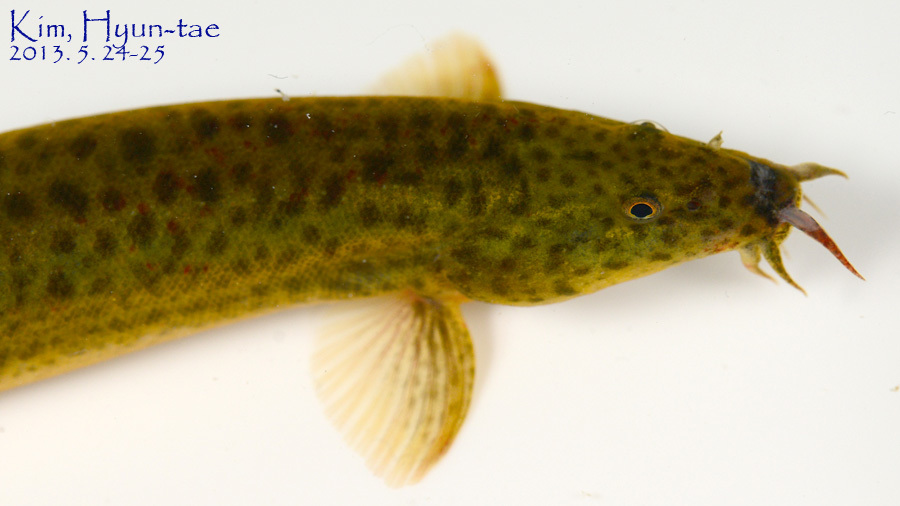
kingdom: Animalia
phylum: Chordata
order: Cypriniformes
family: Cobitidae
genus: Misgurnus
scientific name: Misgurnus anguillicaudatus
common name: Oriental weatherfish
